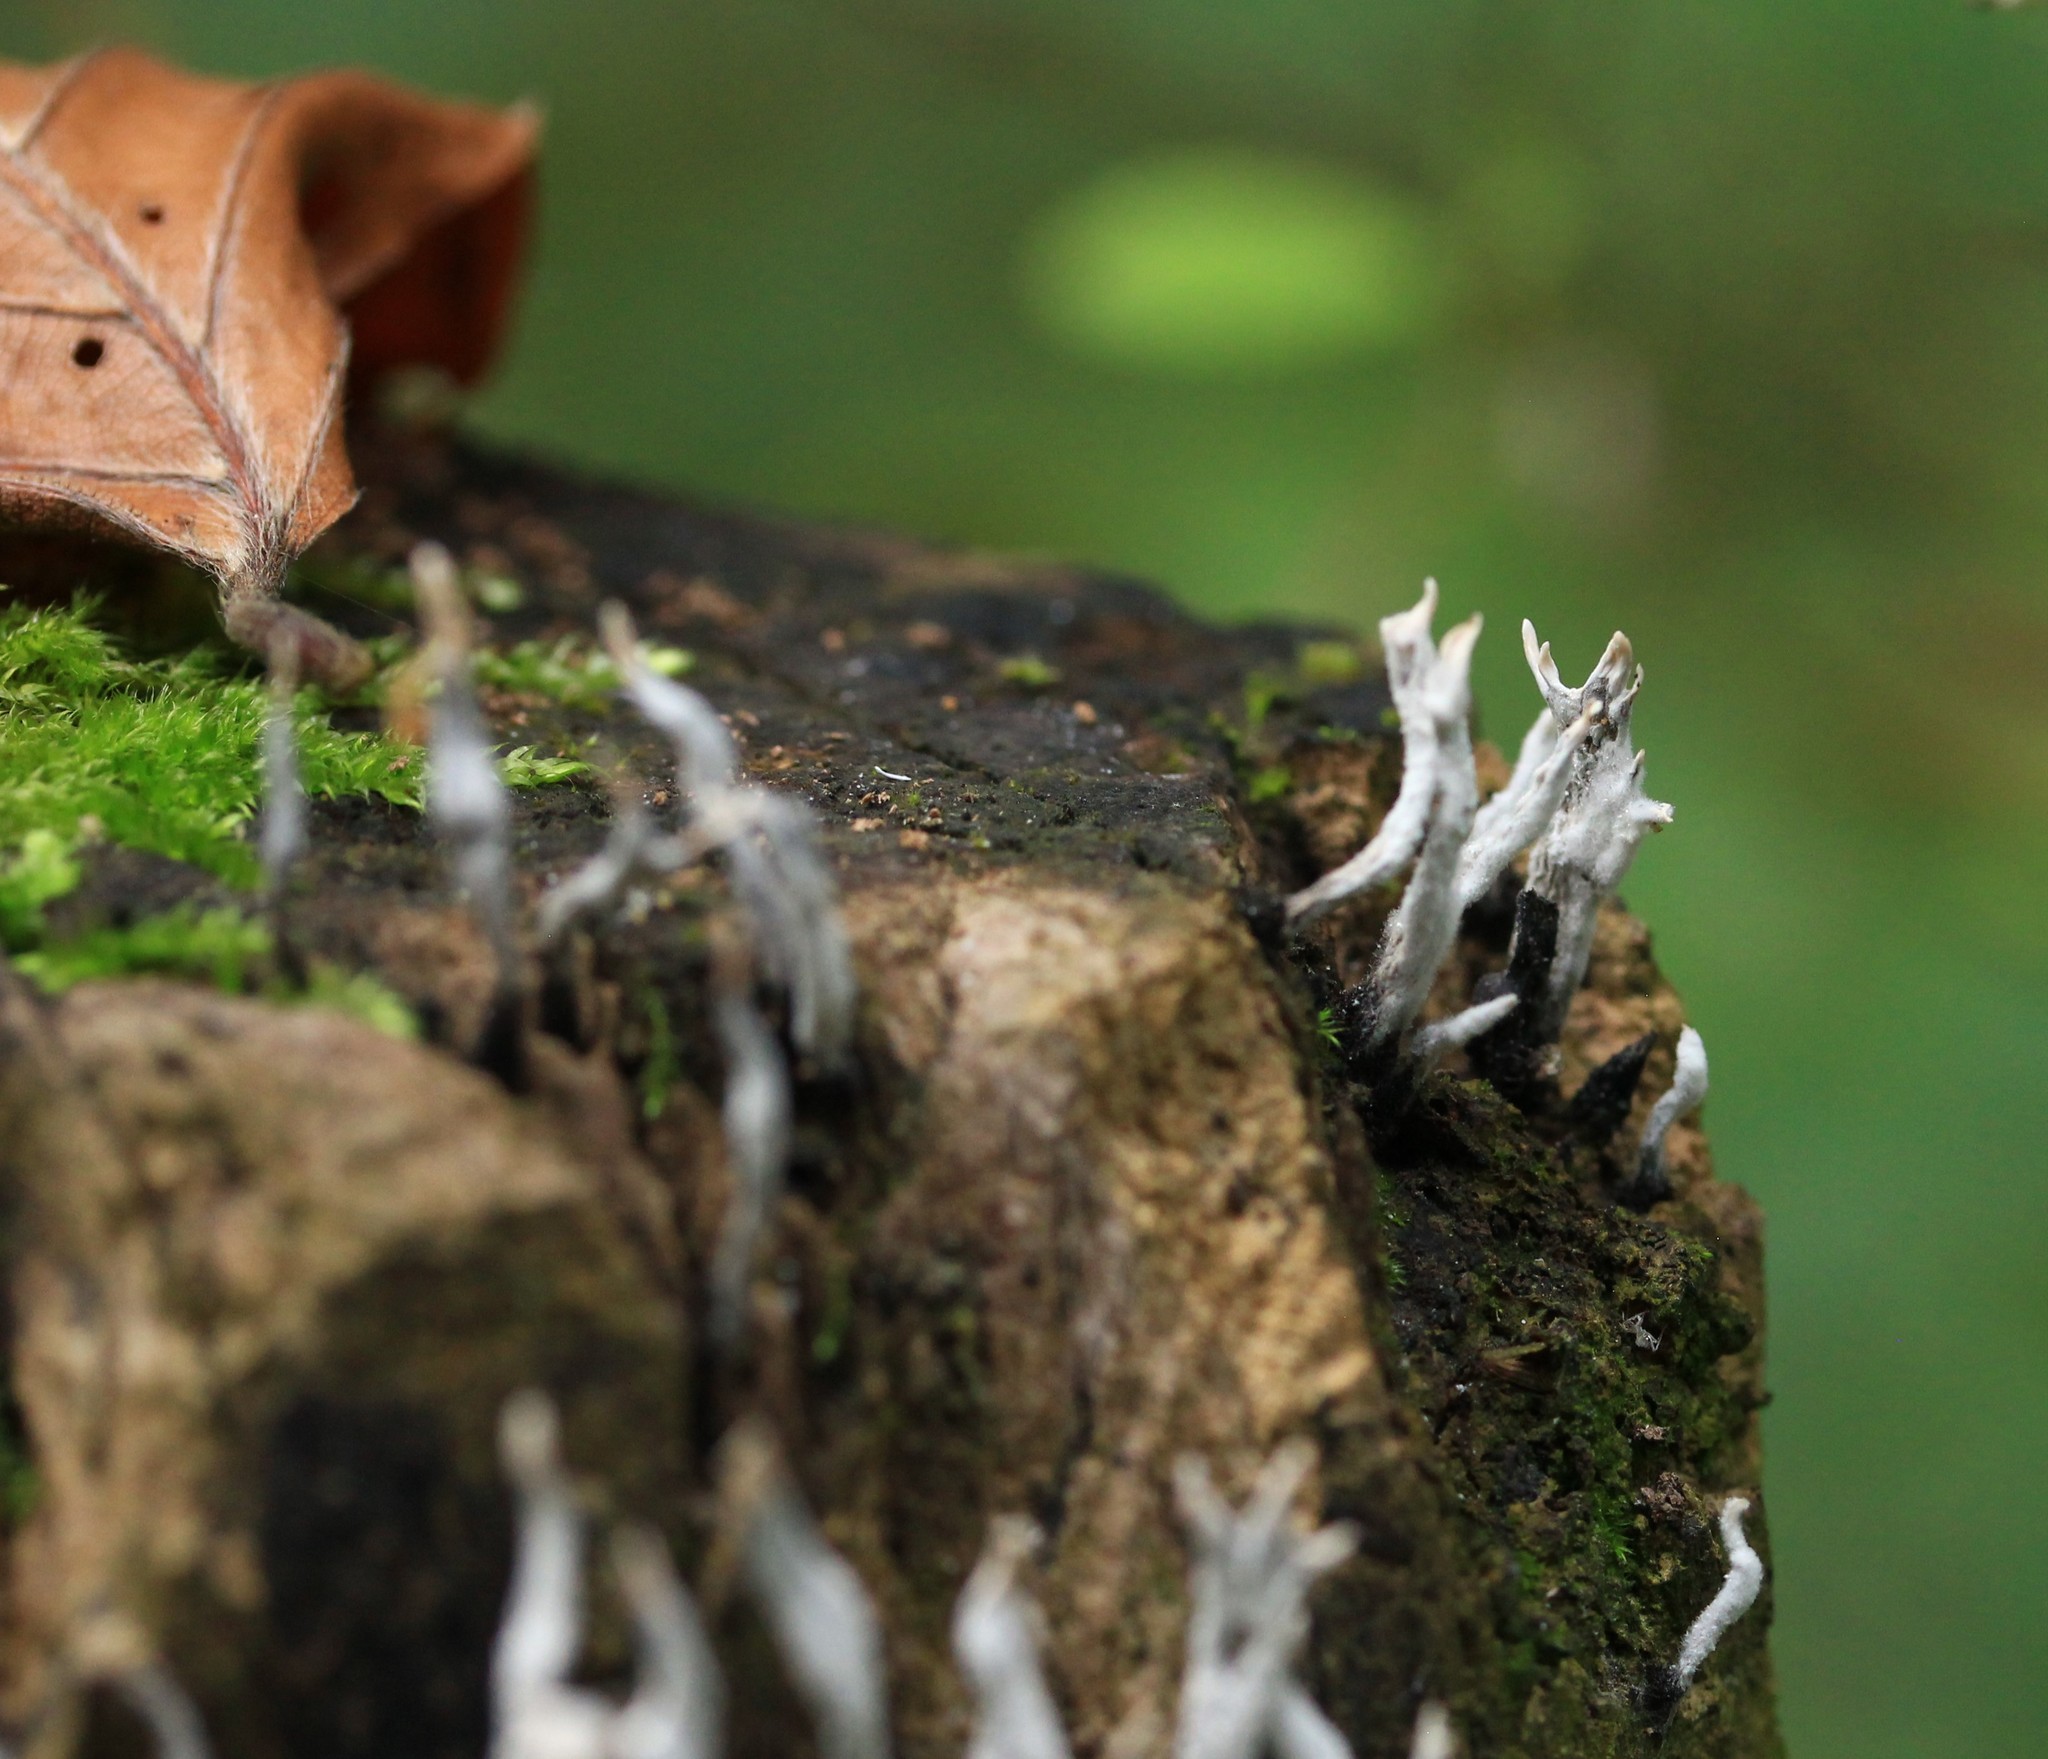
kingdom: Fungi
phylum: Ascomycota
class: Sordariomycetes
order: Xylariales
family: Xylariaceae
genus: Xylaria
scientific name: Xylaria hypoxylon
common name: Candle-snuff fungus
